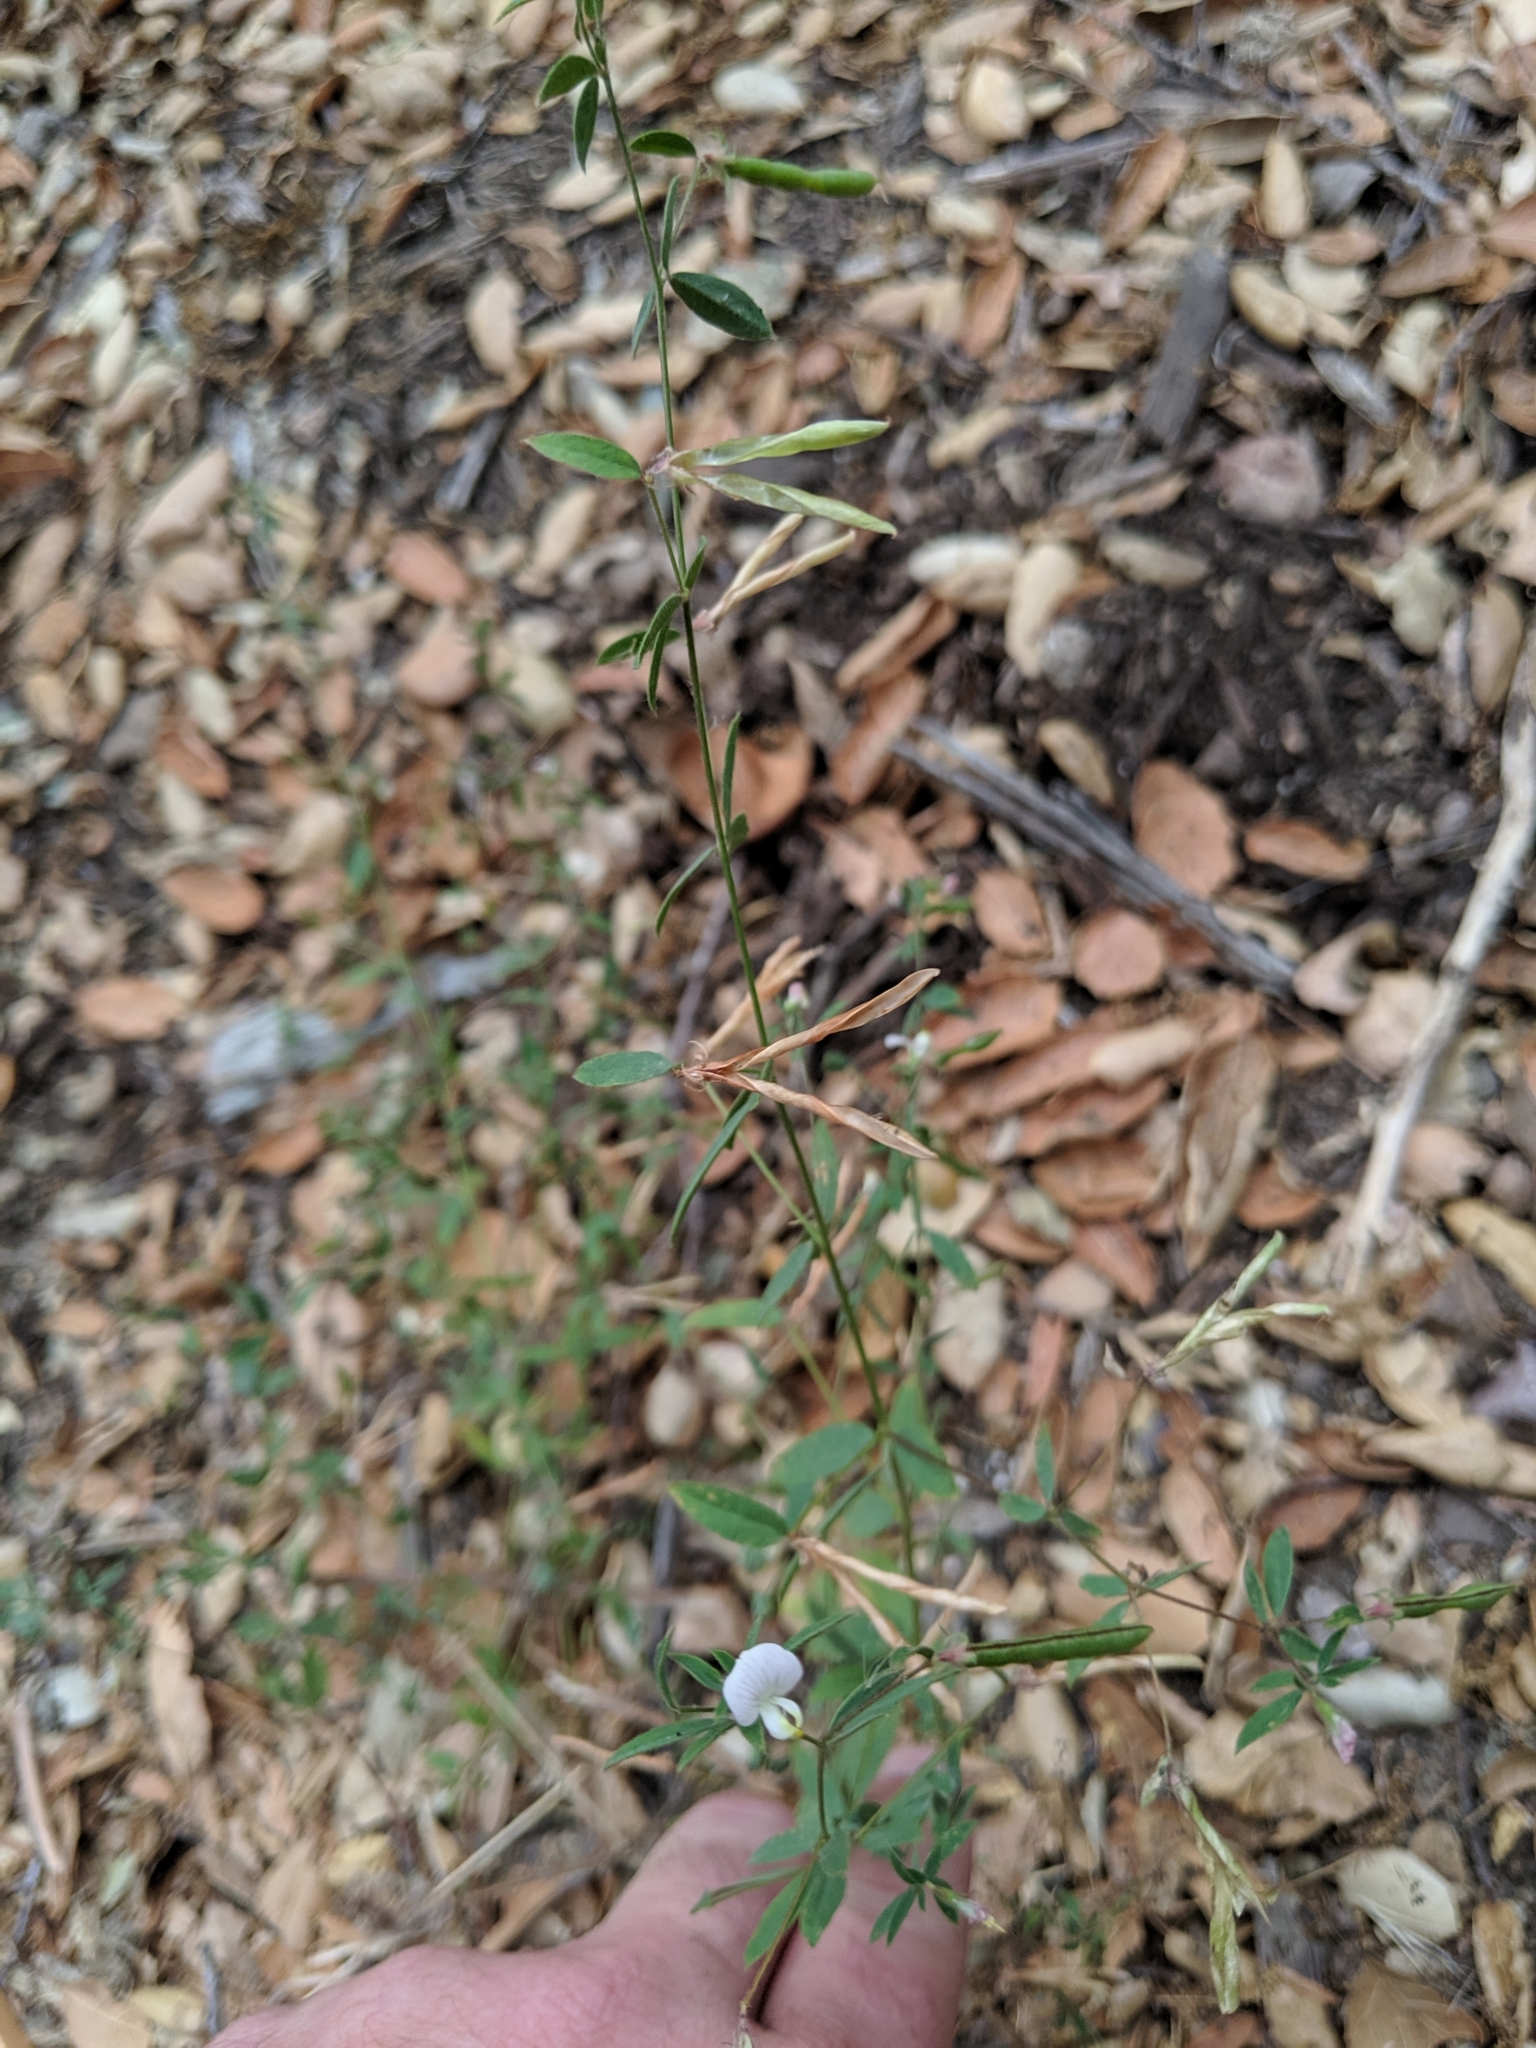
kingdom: Plantae
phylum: Tracheophyta
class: Magnoliopsida
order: Fabales
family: Fabaceae
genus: Acmispon
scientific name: Acmispon americanus
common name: American bird's-foot trefoil
